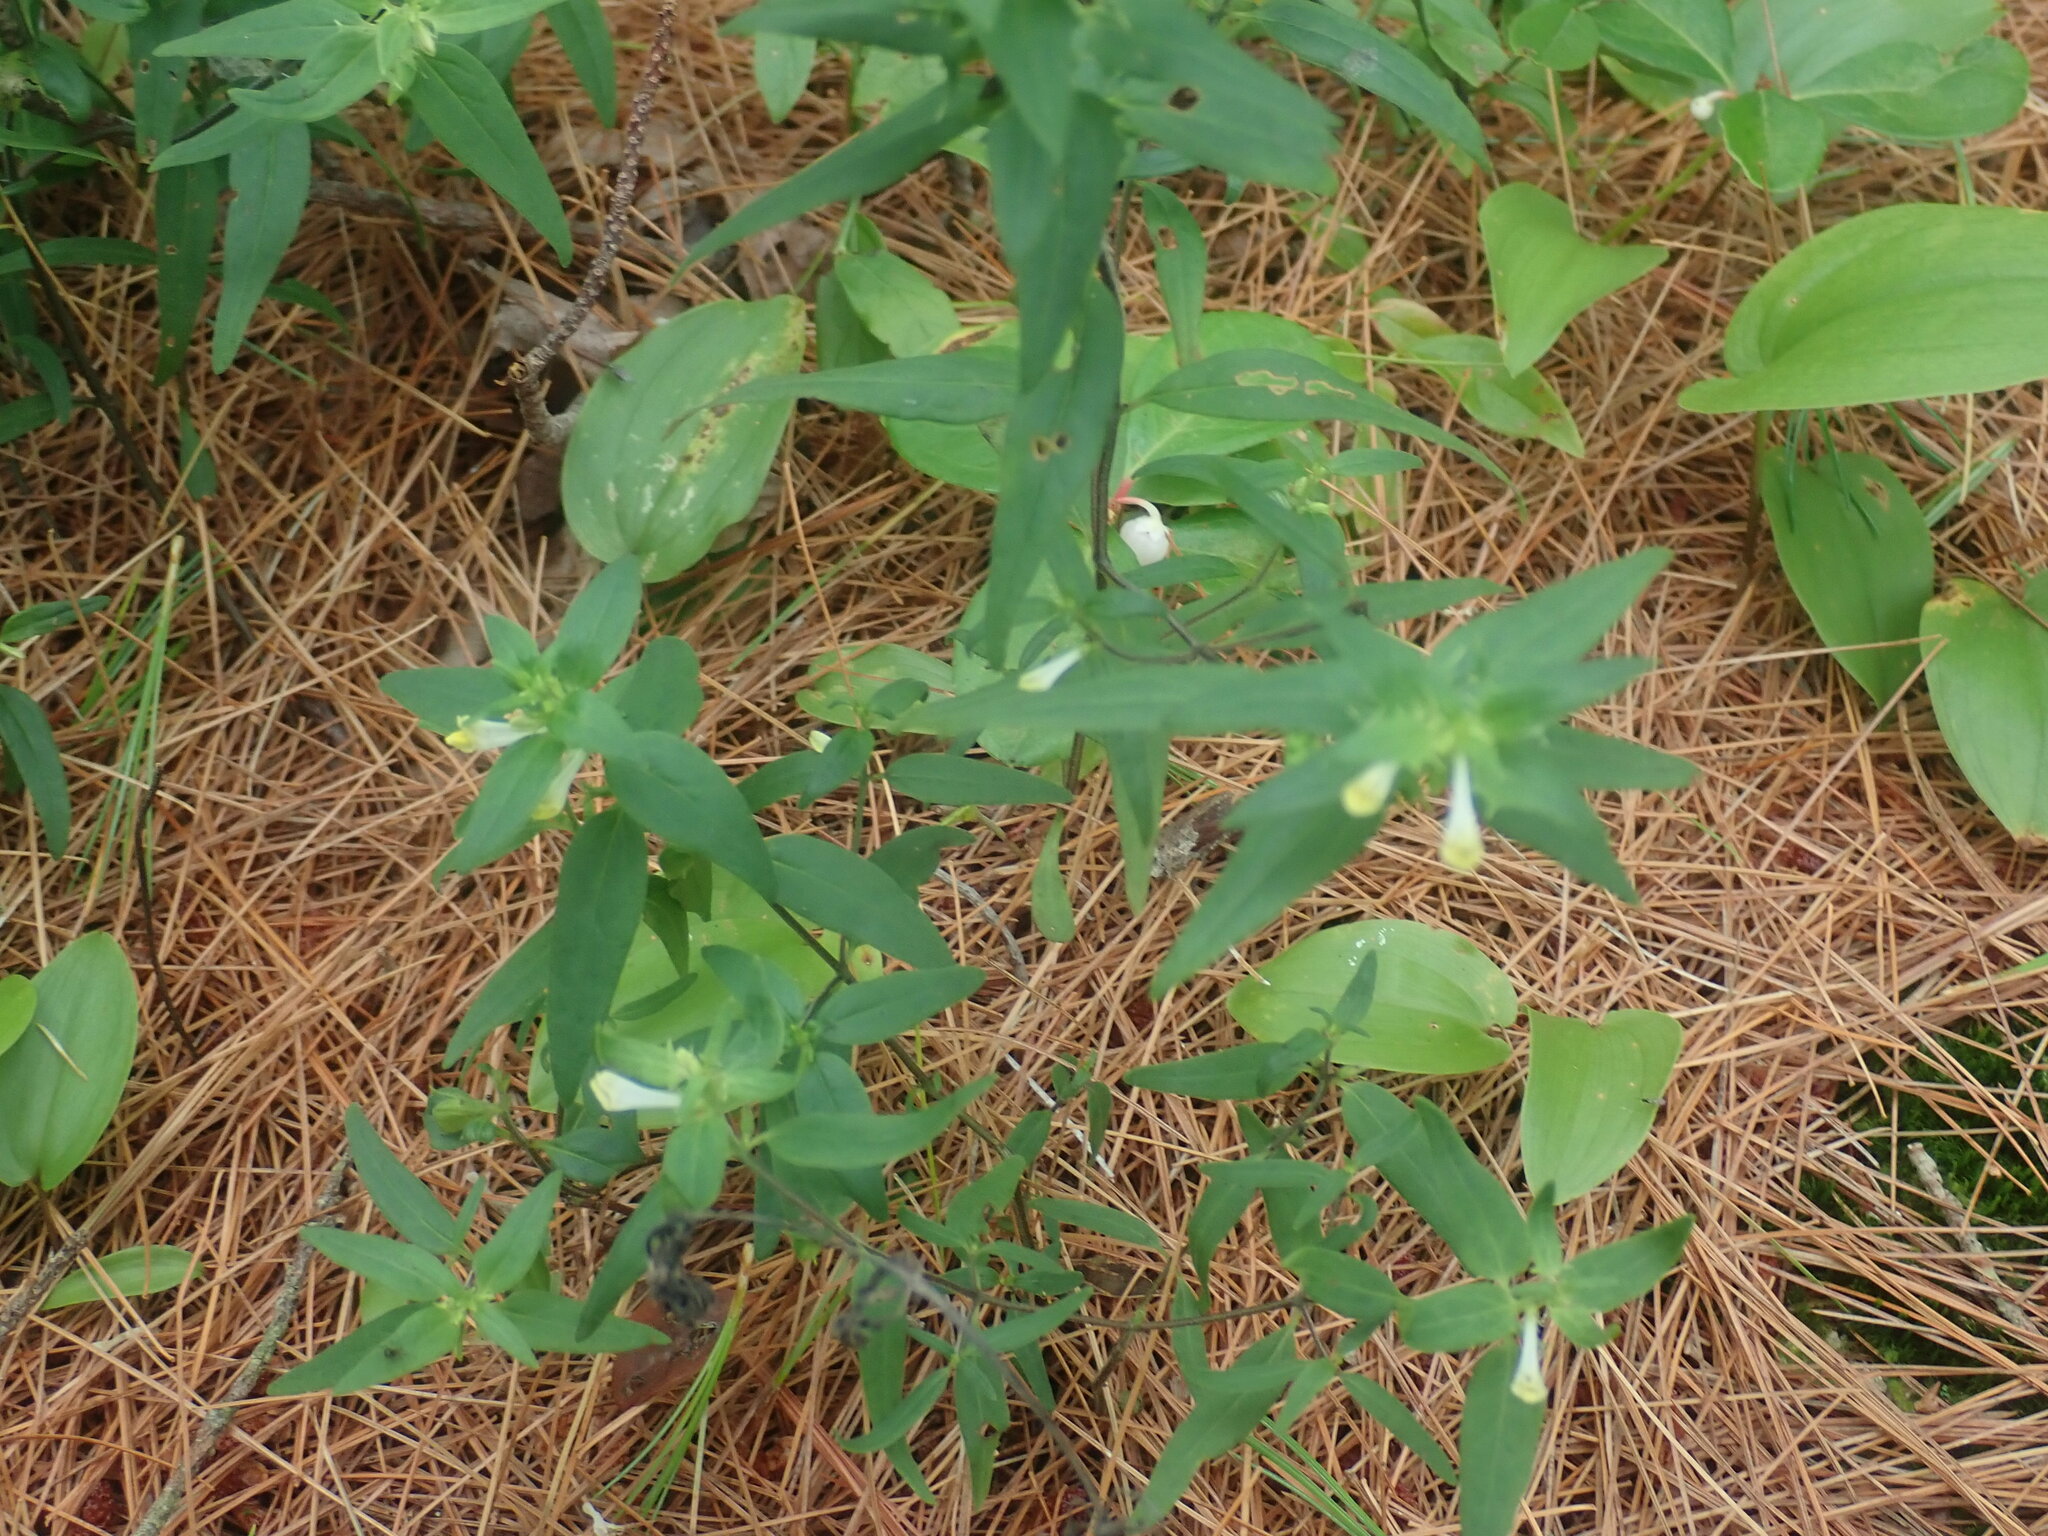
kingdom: Plantae
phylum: Tracheophyta
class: Magnoliopsida
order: Lamiales
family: Orobanchaceae
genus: Melampyrum
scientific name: Melampyrum lineare
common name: American cow-wheat
